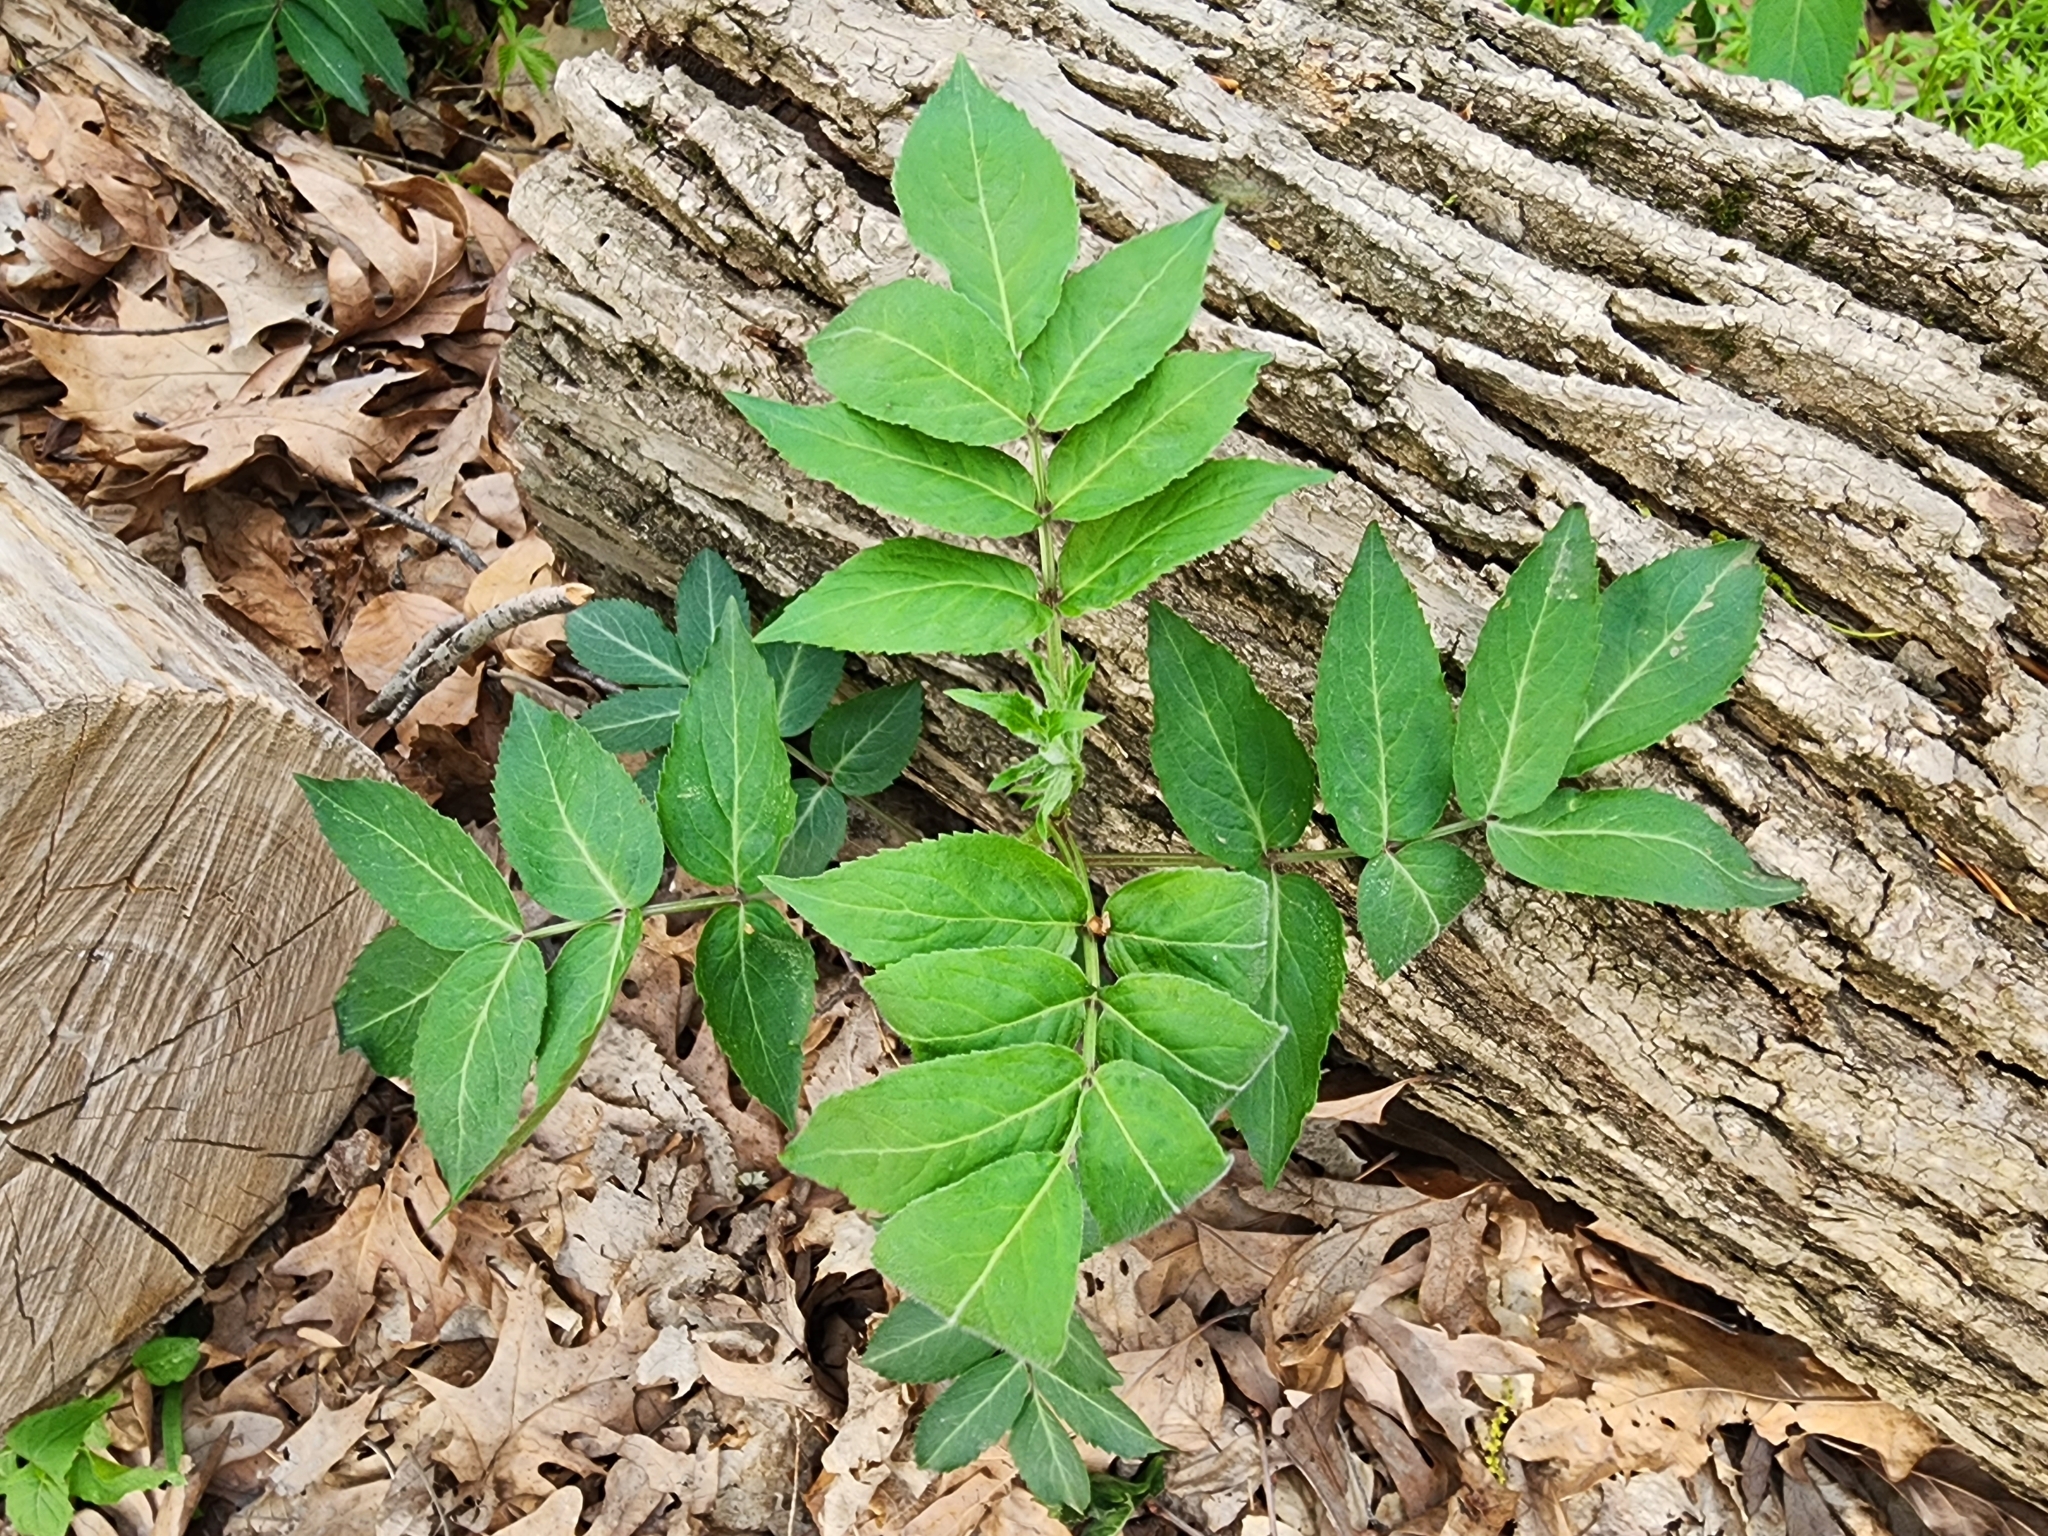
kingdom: Plantae
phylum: Tracheophyta
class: Magnoliopsida
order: Dipsacales
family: Viburnaceae
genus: Sambucus
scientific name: Sambucus canadensis
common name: American elder
